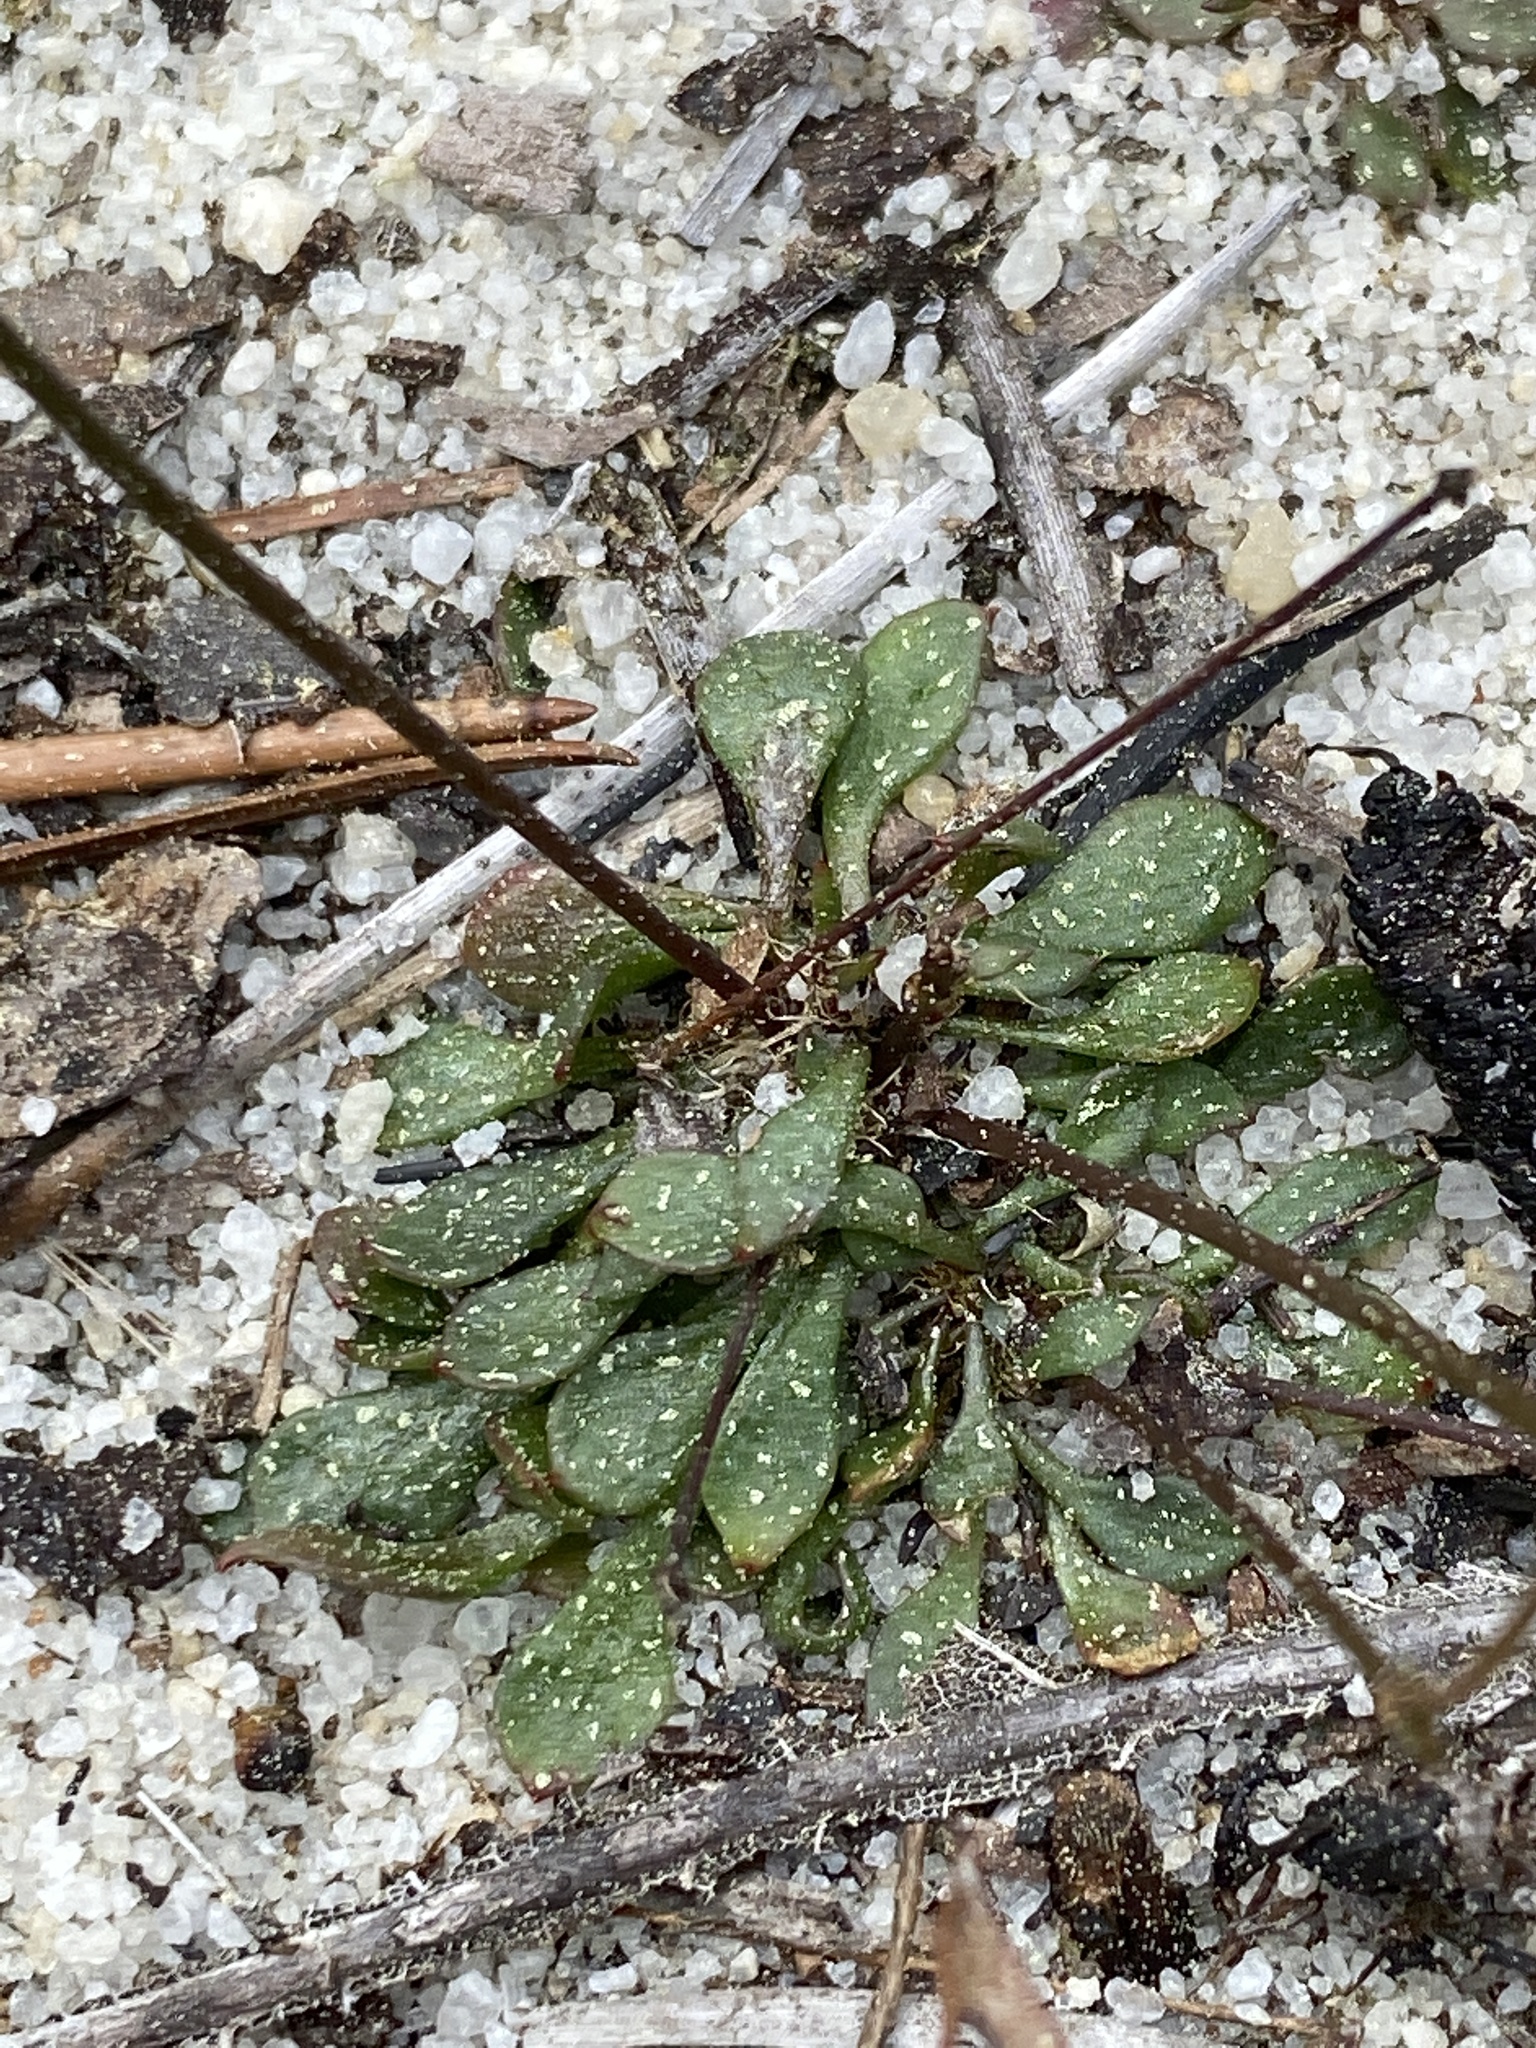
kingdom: Plantae
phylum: Tracheophyta
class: Magnoliopsida
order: Caryophyllales
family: Caryophyllaceae
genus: Stipulicida
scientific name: Stipulicida setacea
